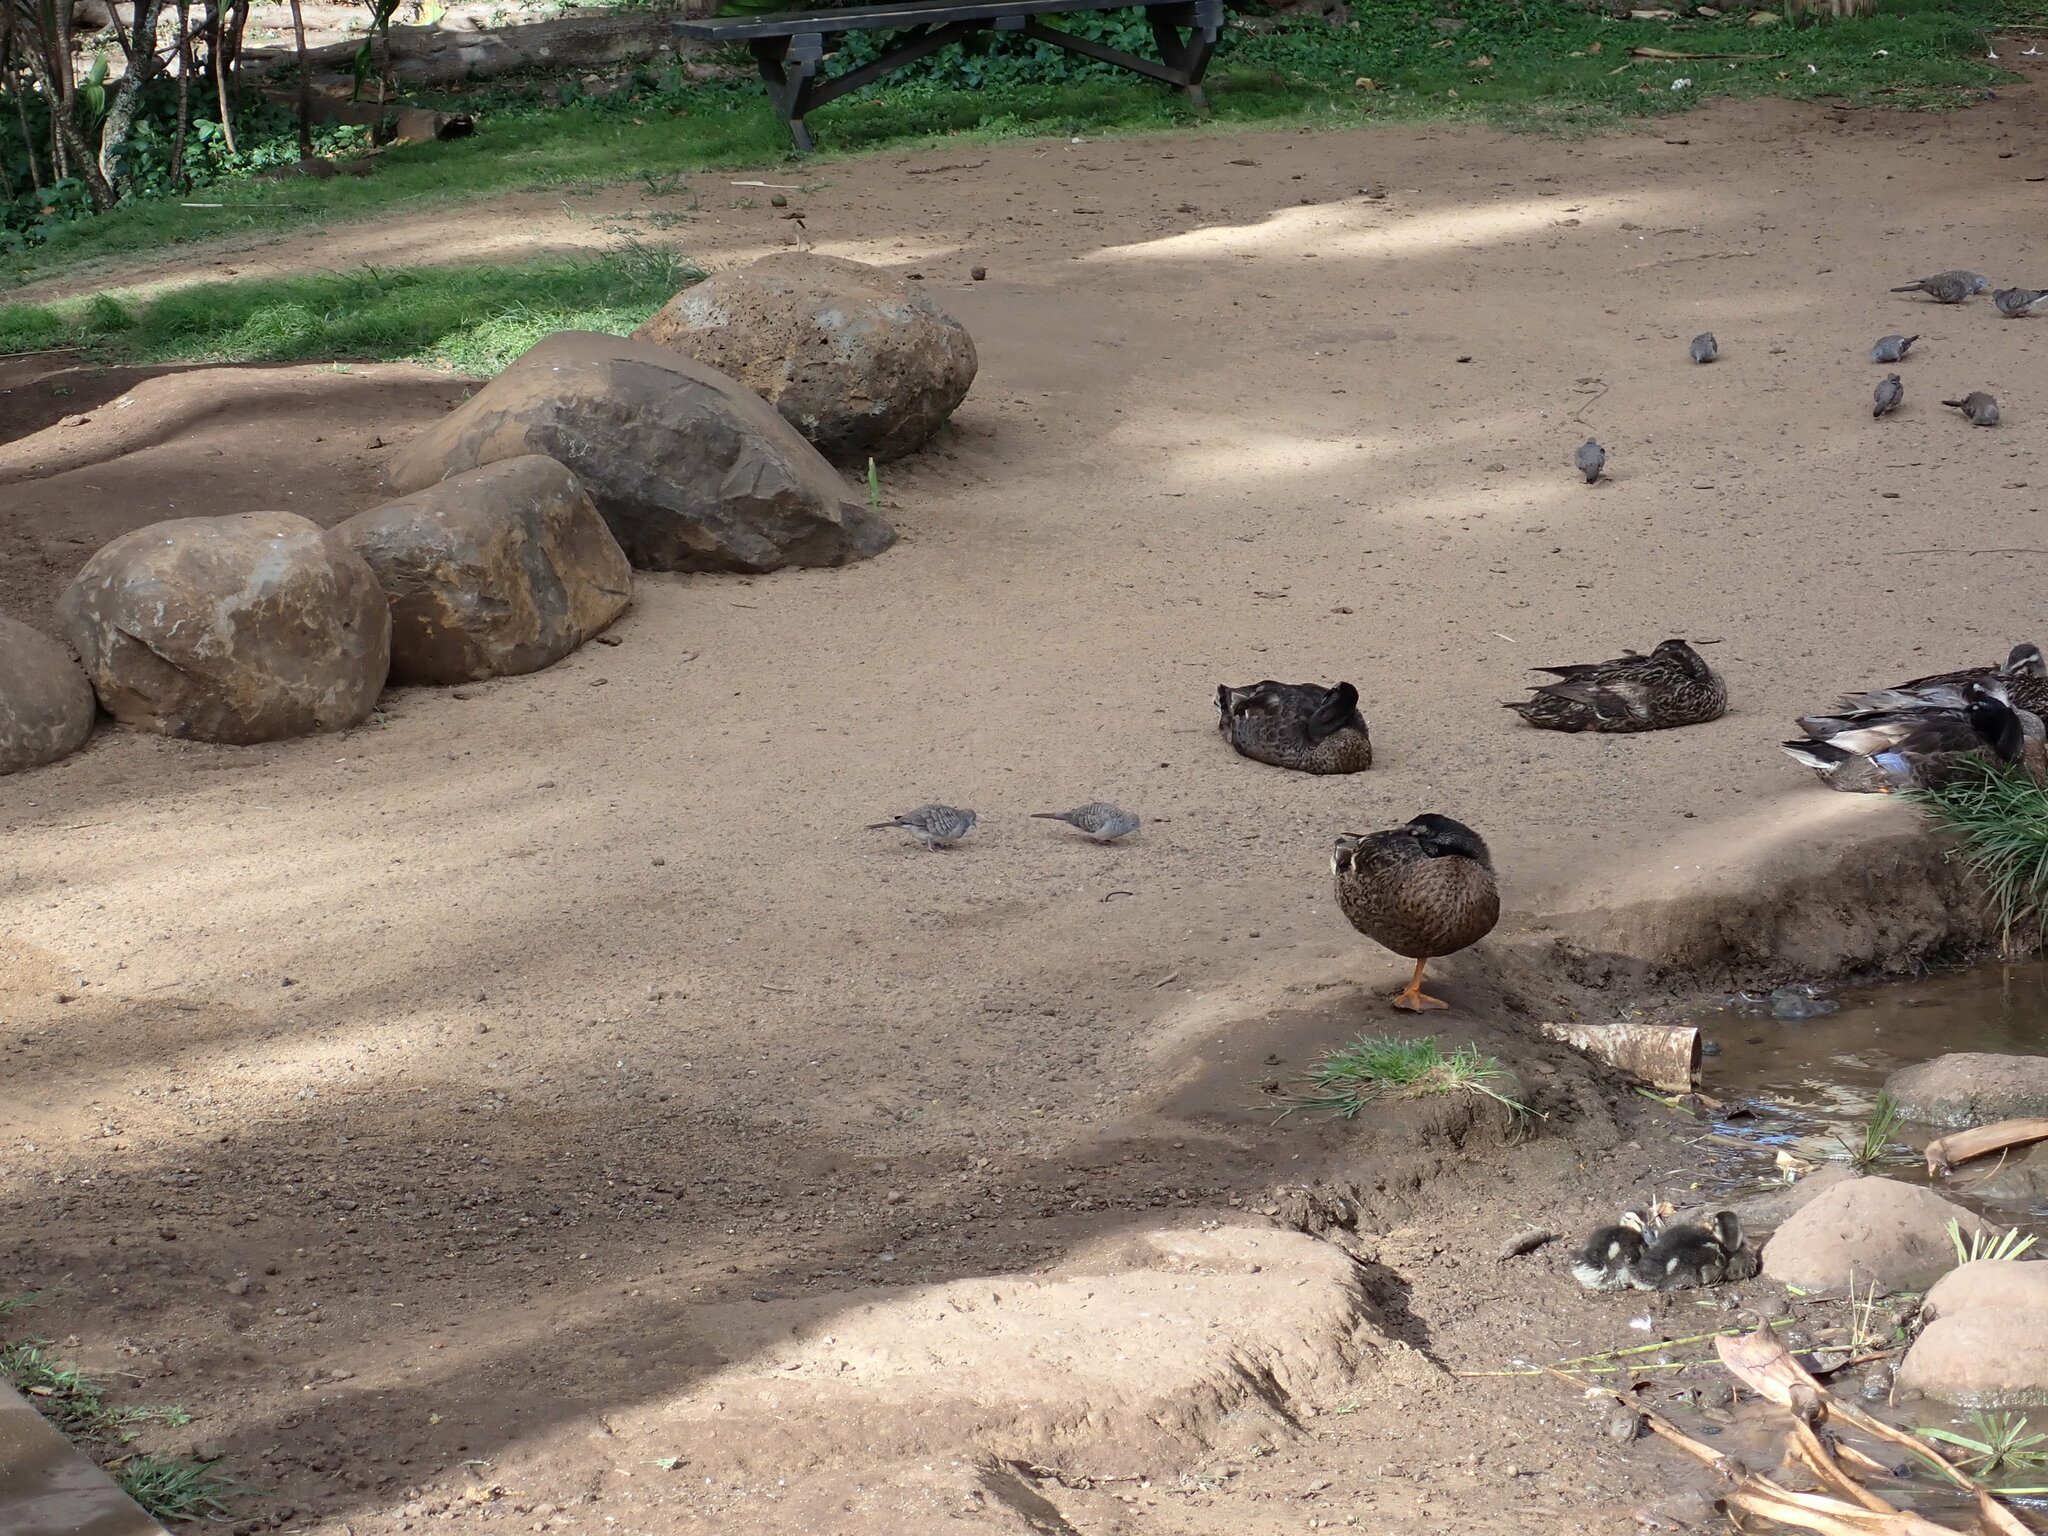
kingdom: Animalia
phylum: Chordata
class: Aves
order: Columbiformes
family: Columbidae
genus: Geopelia
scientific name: Geopelia striata
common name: Zebra dove
